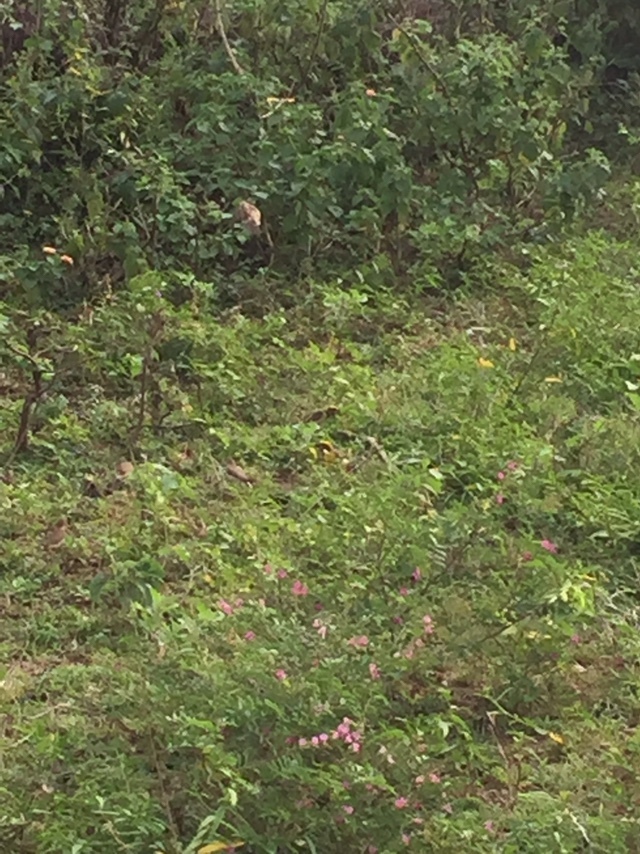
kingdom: Animalia
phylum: Chordata
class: Aves
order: Passeriformes
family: Ploceidae
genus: Ploceus
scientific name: Ploceus philippinus
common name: Baya weaver
